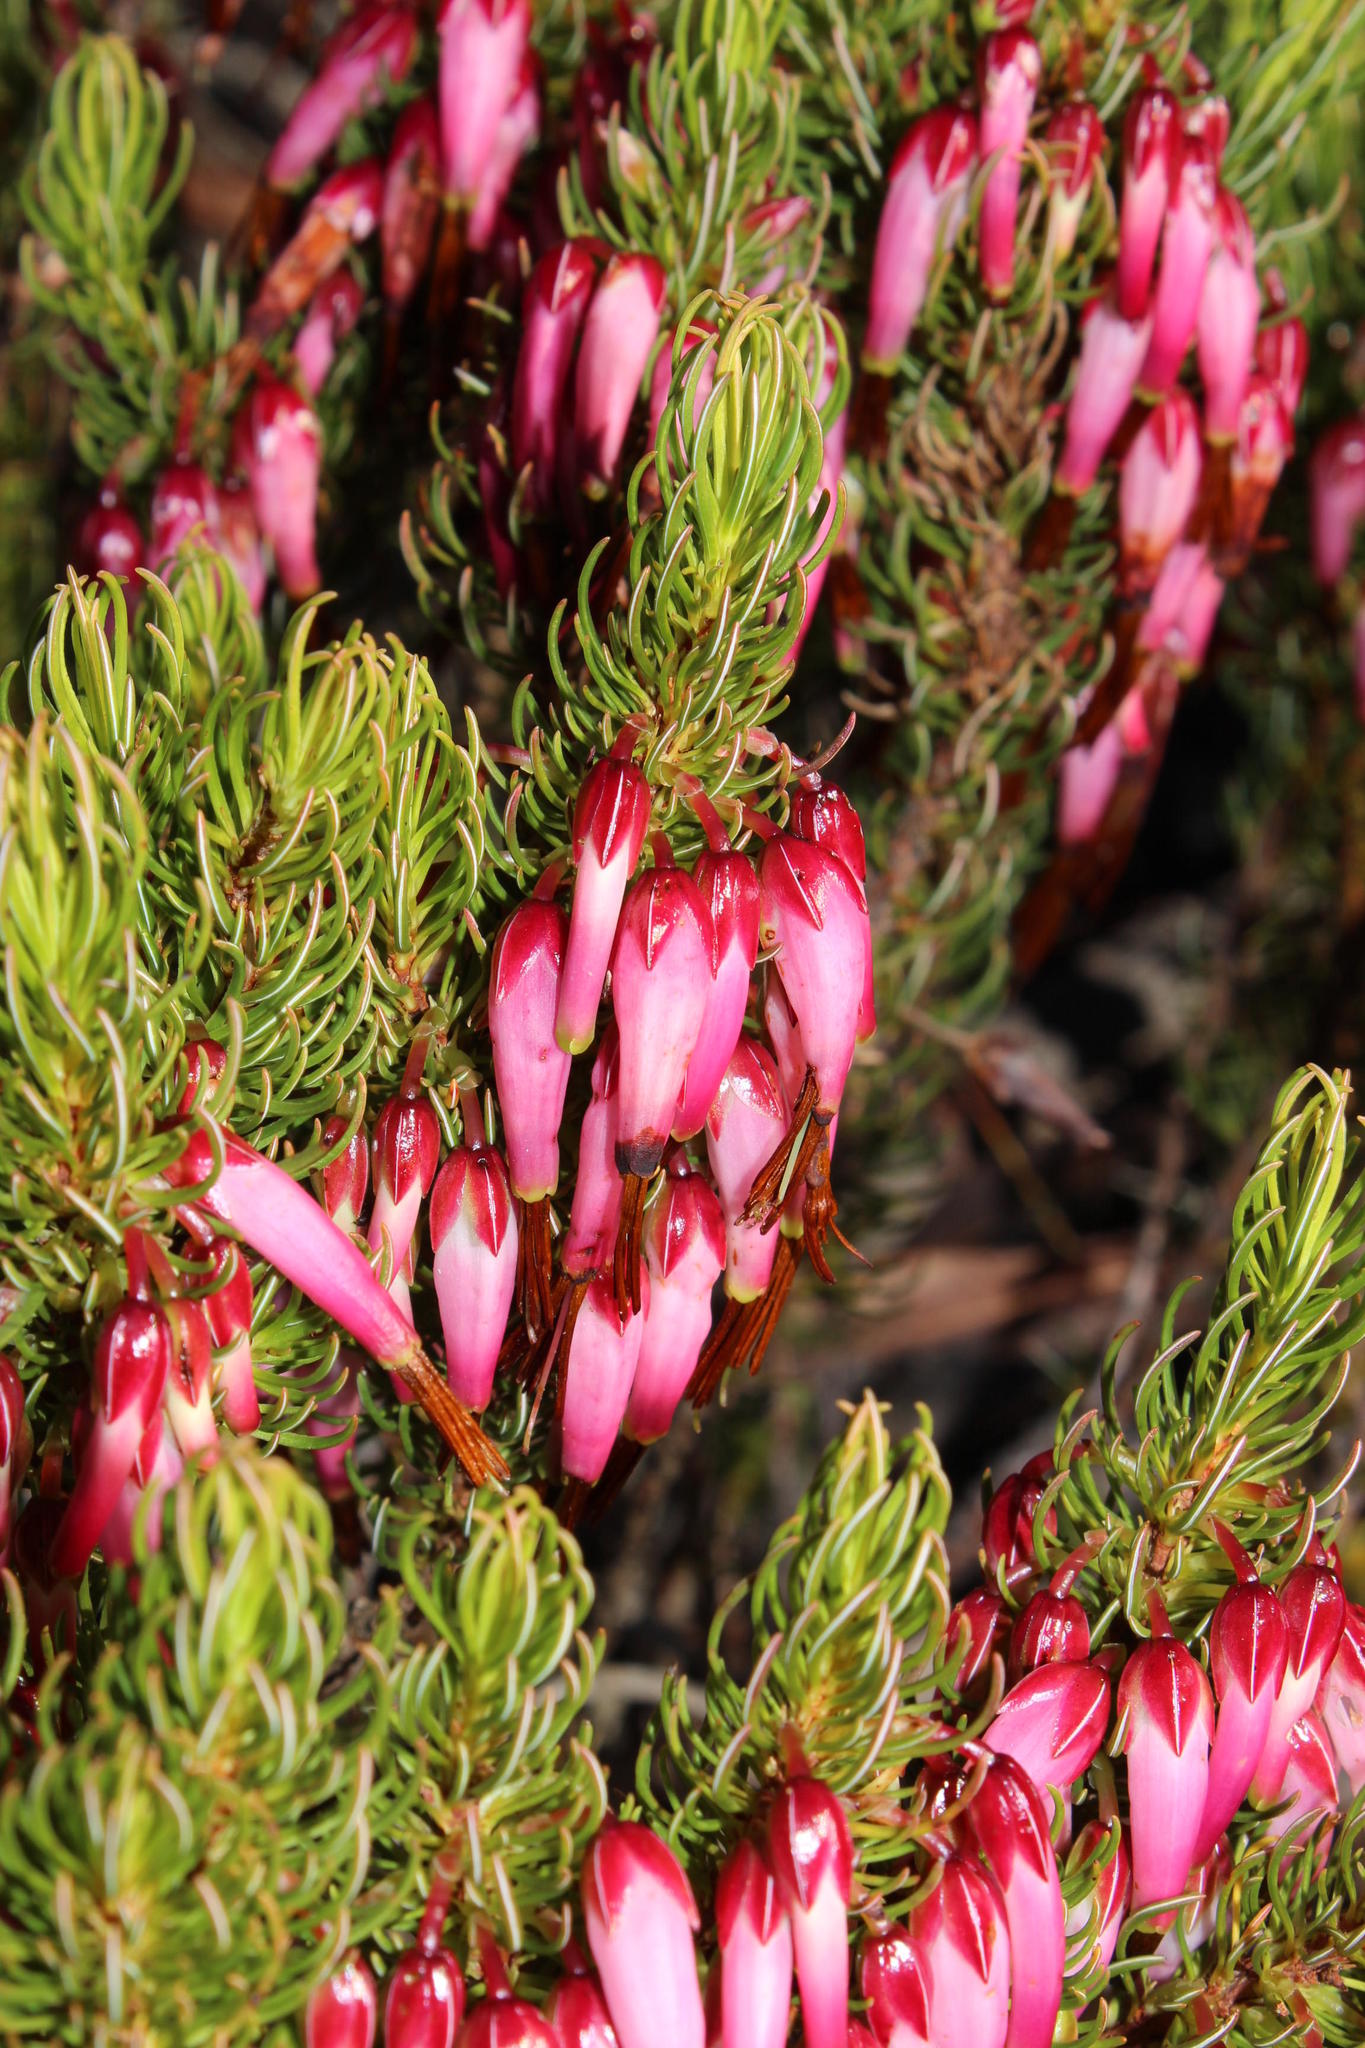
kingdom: Plantae
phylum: Tracheophyta
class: Magnoliopsida
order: Ericales
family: Ericaceae
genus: Erica
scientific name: Erica plukenetii
